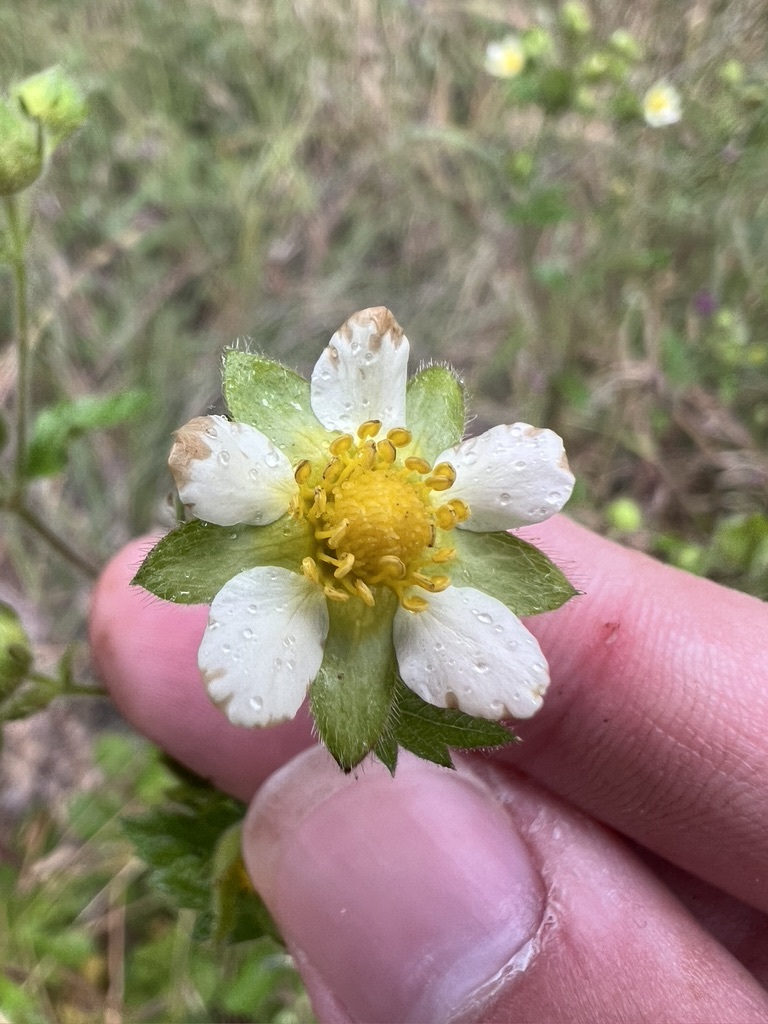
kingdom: Plantae
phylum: Tracheophyta
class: Magnoliopsida
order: Rosales
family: Rosaceae
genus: Drymocallis
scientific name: Drymocallis glandulosa
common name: Sticky cinquefoil
